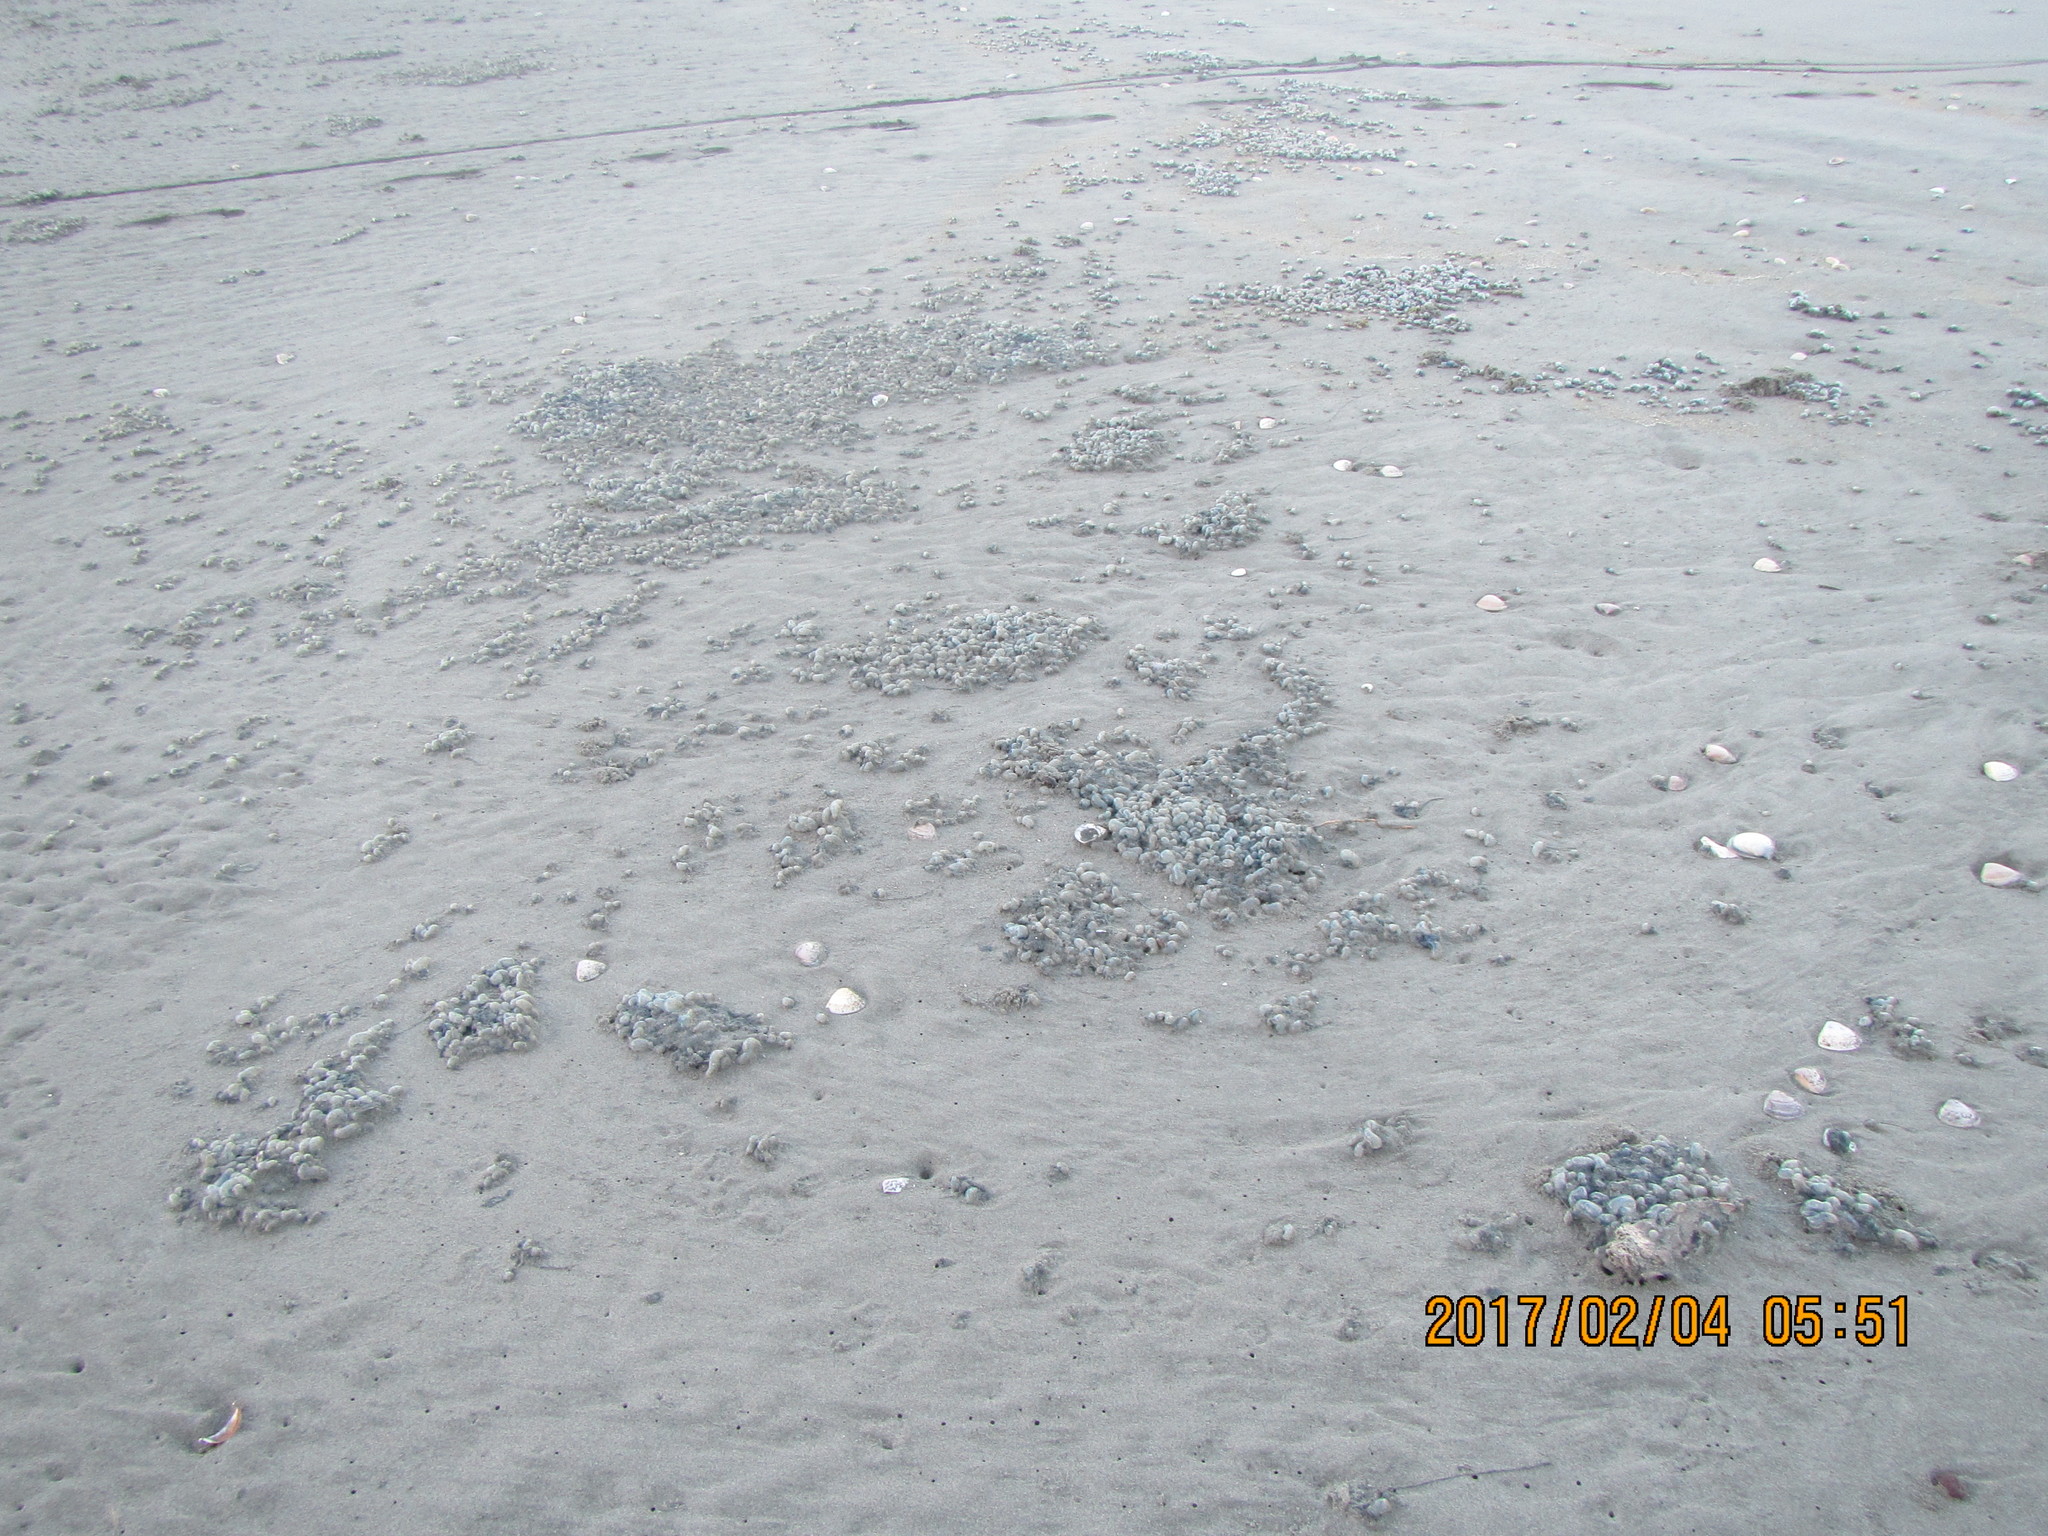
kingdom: Animalia
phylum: Cnidaria
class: Hydrozoa
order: Siphonophorae
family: Physaliidae
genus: Physalia
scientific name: Physalia physalis
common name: Portuguese man-of-war
